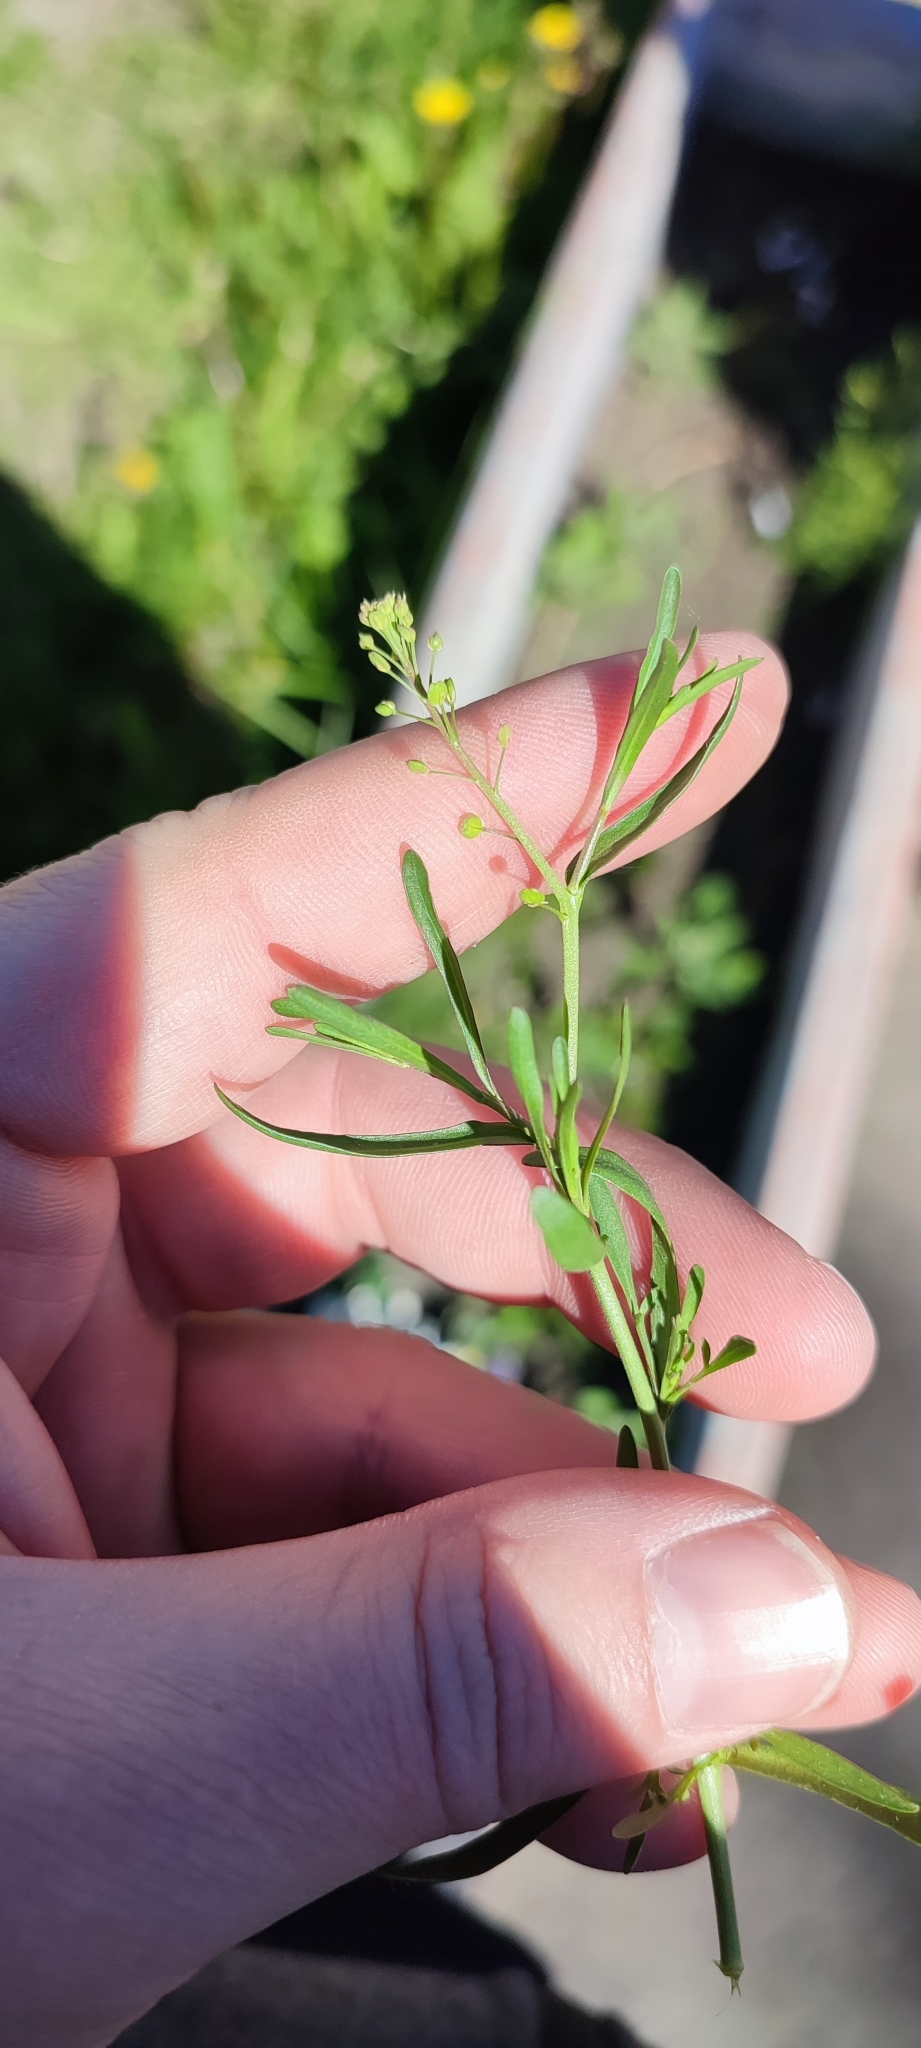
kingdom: Plantae
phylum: Tracheophyta
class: Magnoliopsida
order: Brassicales
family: Brassicaceae
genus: Lepidium
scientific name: Lepidium ruderale
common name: Narrow-leaved pepperwort
